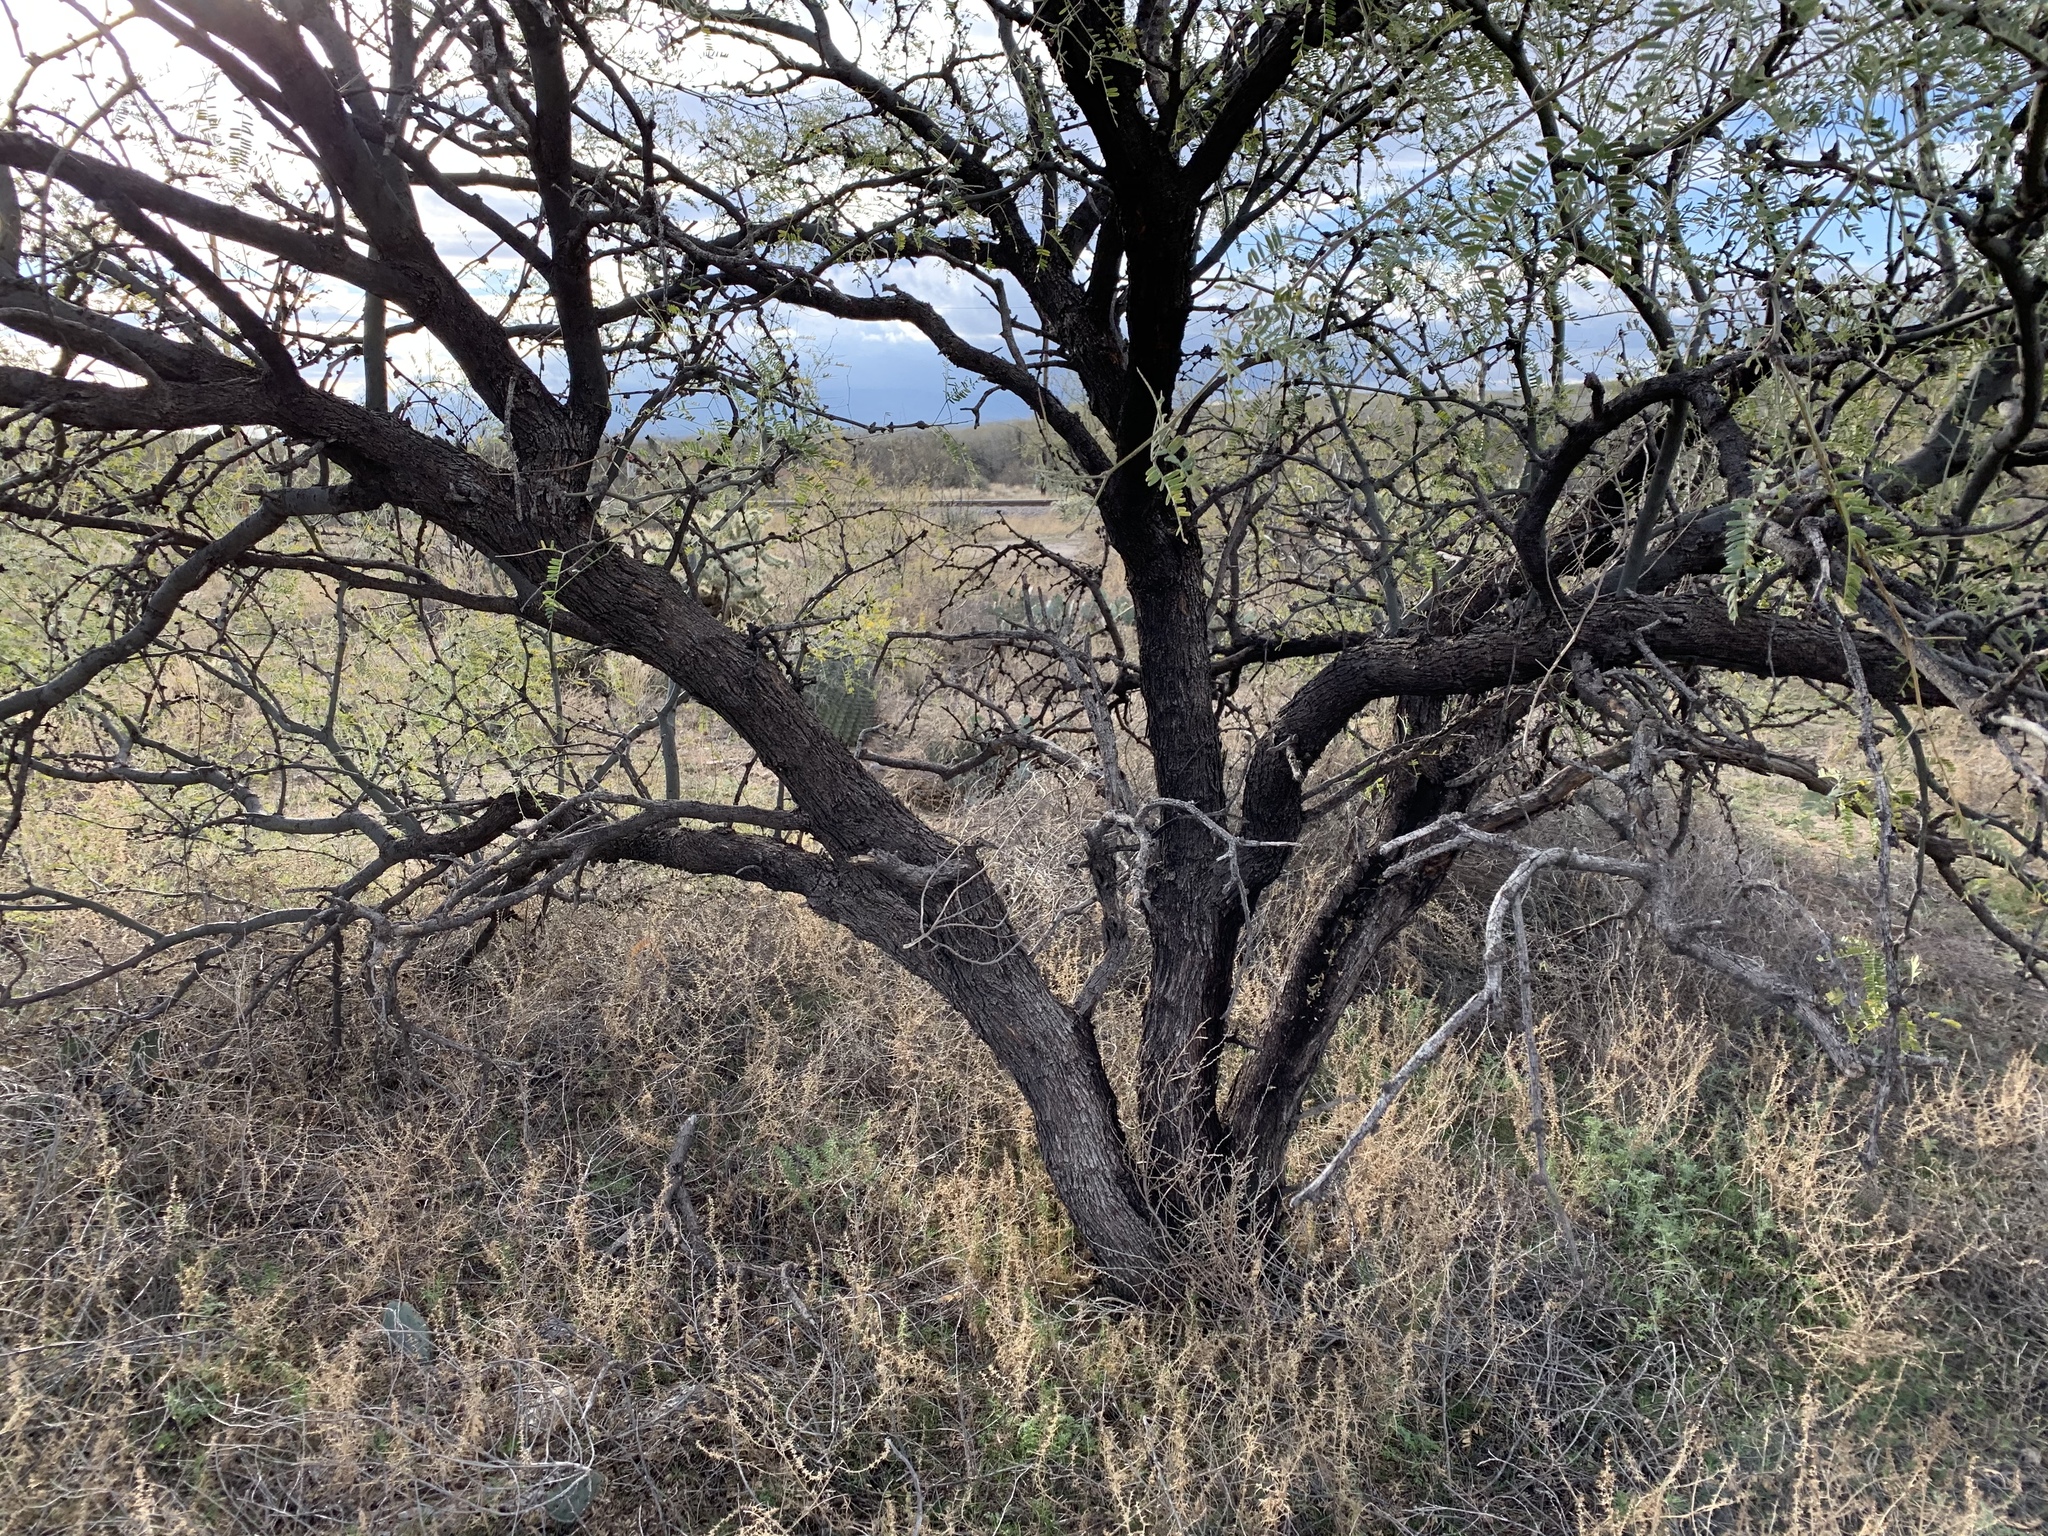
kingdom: Plantae
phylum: Tracheophyta
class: Magnoliopsida
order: Fabales
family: Fabaceae
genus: Prosopis
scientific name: Prosopis velutina
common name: Velvet mesquite
